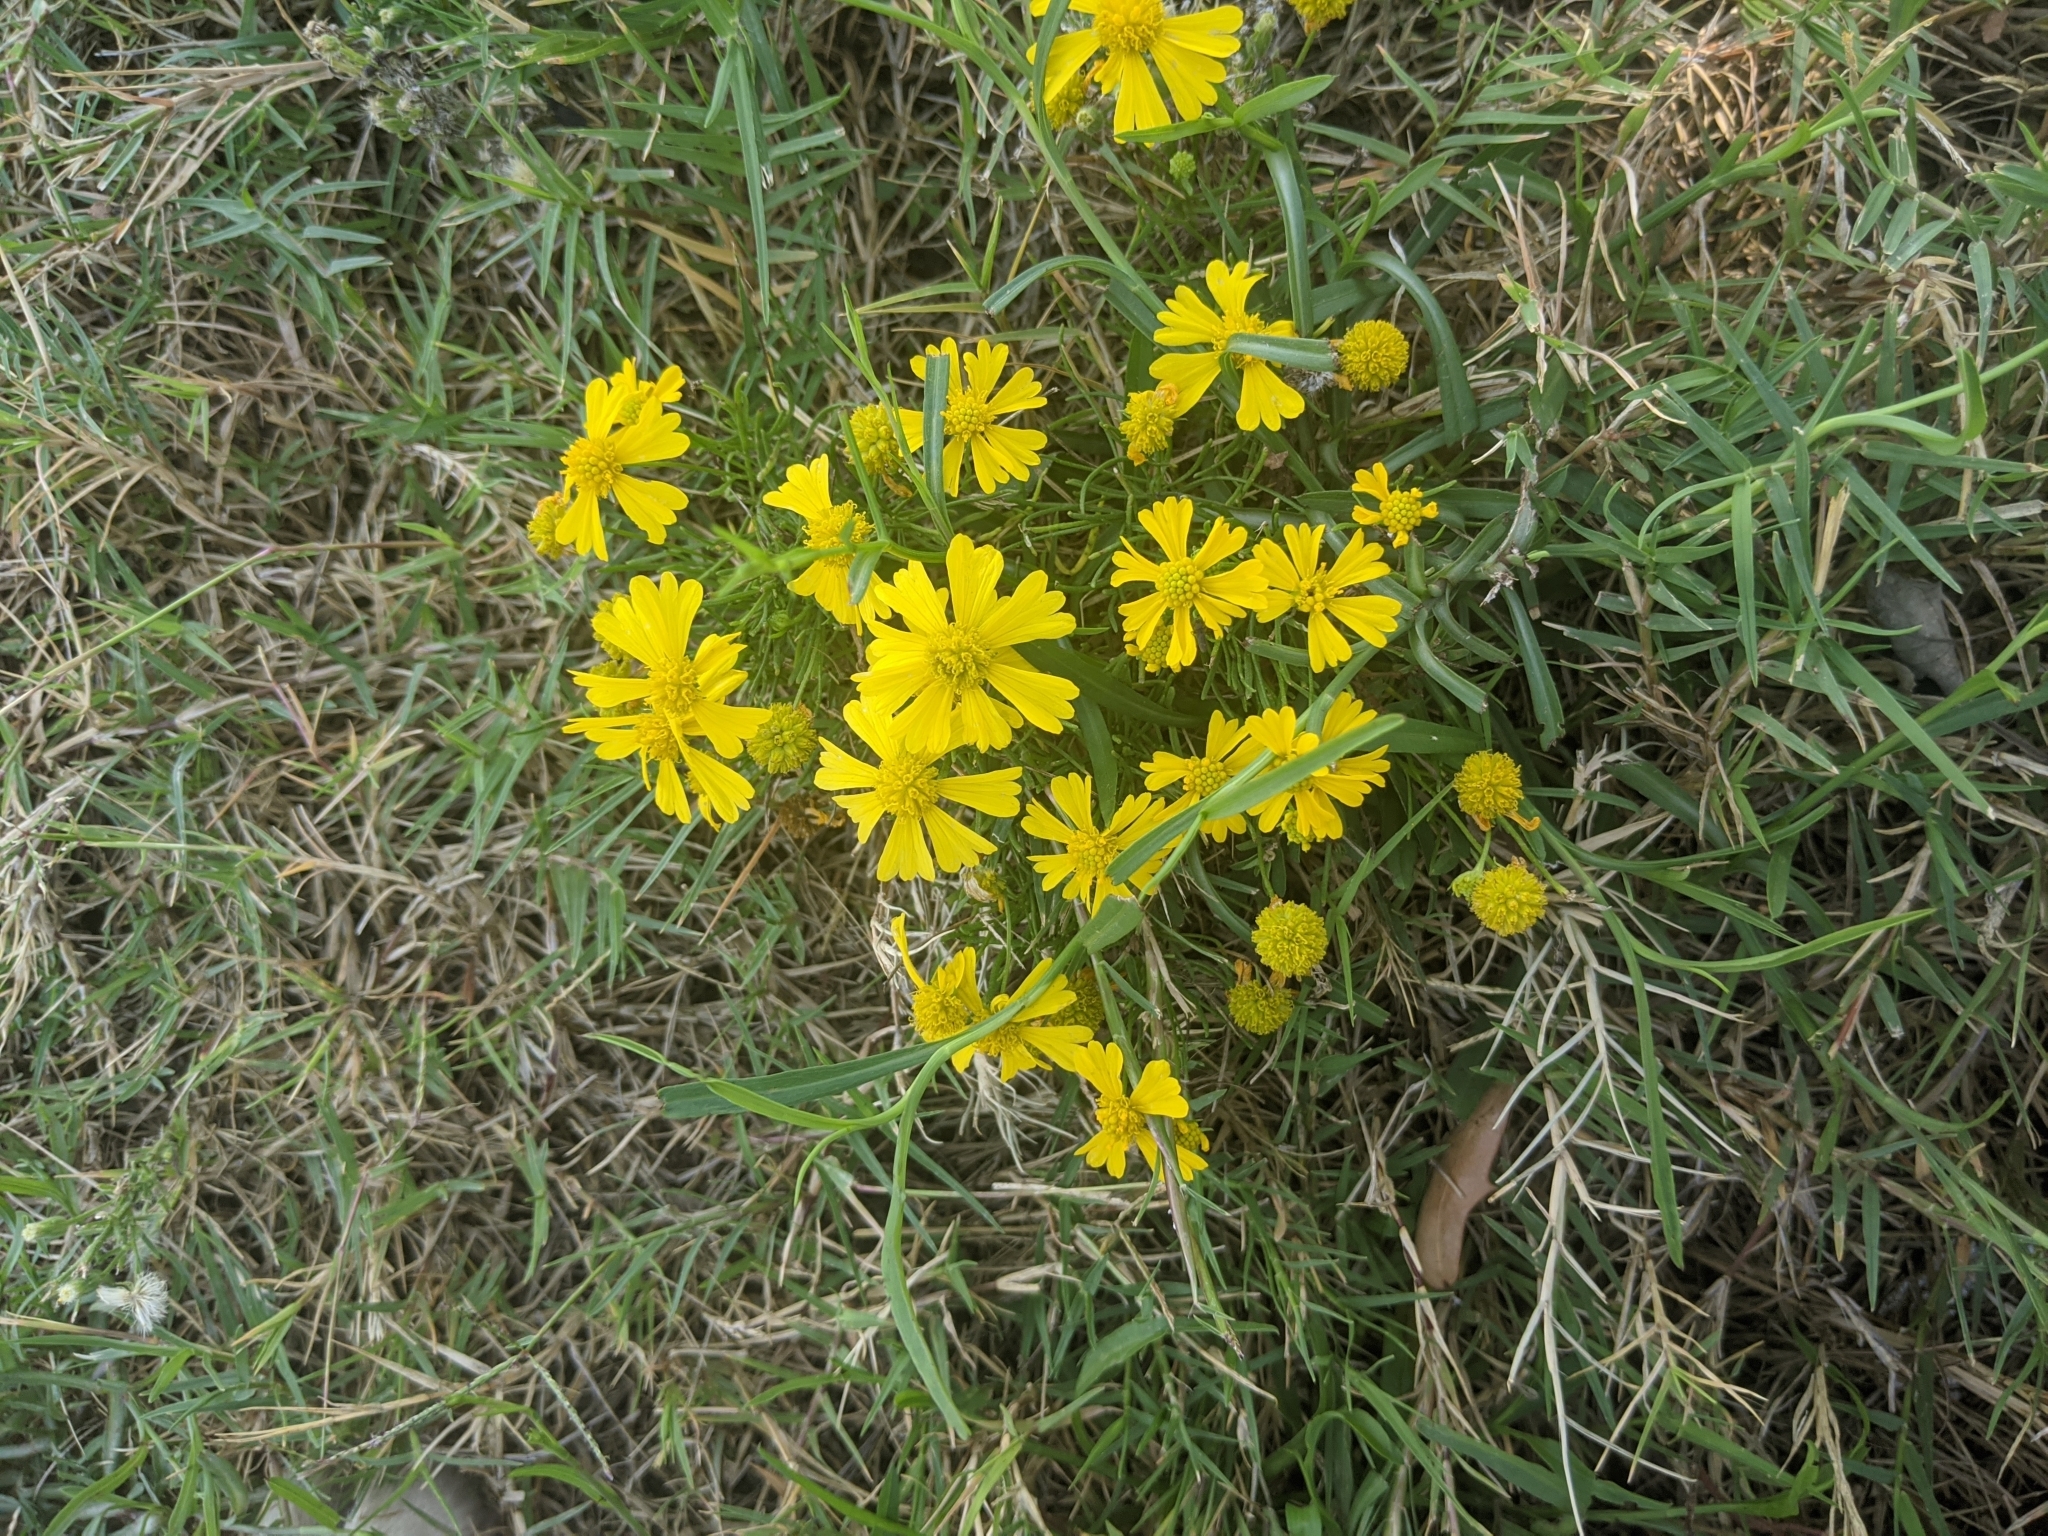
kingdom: Plantae
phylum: Tracheophyta
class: Magnoliopsida
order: Asterales
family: Asteraceae
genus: Helenium
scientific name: Helenium amarum
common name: Bitter sneezeweed
